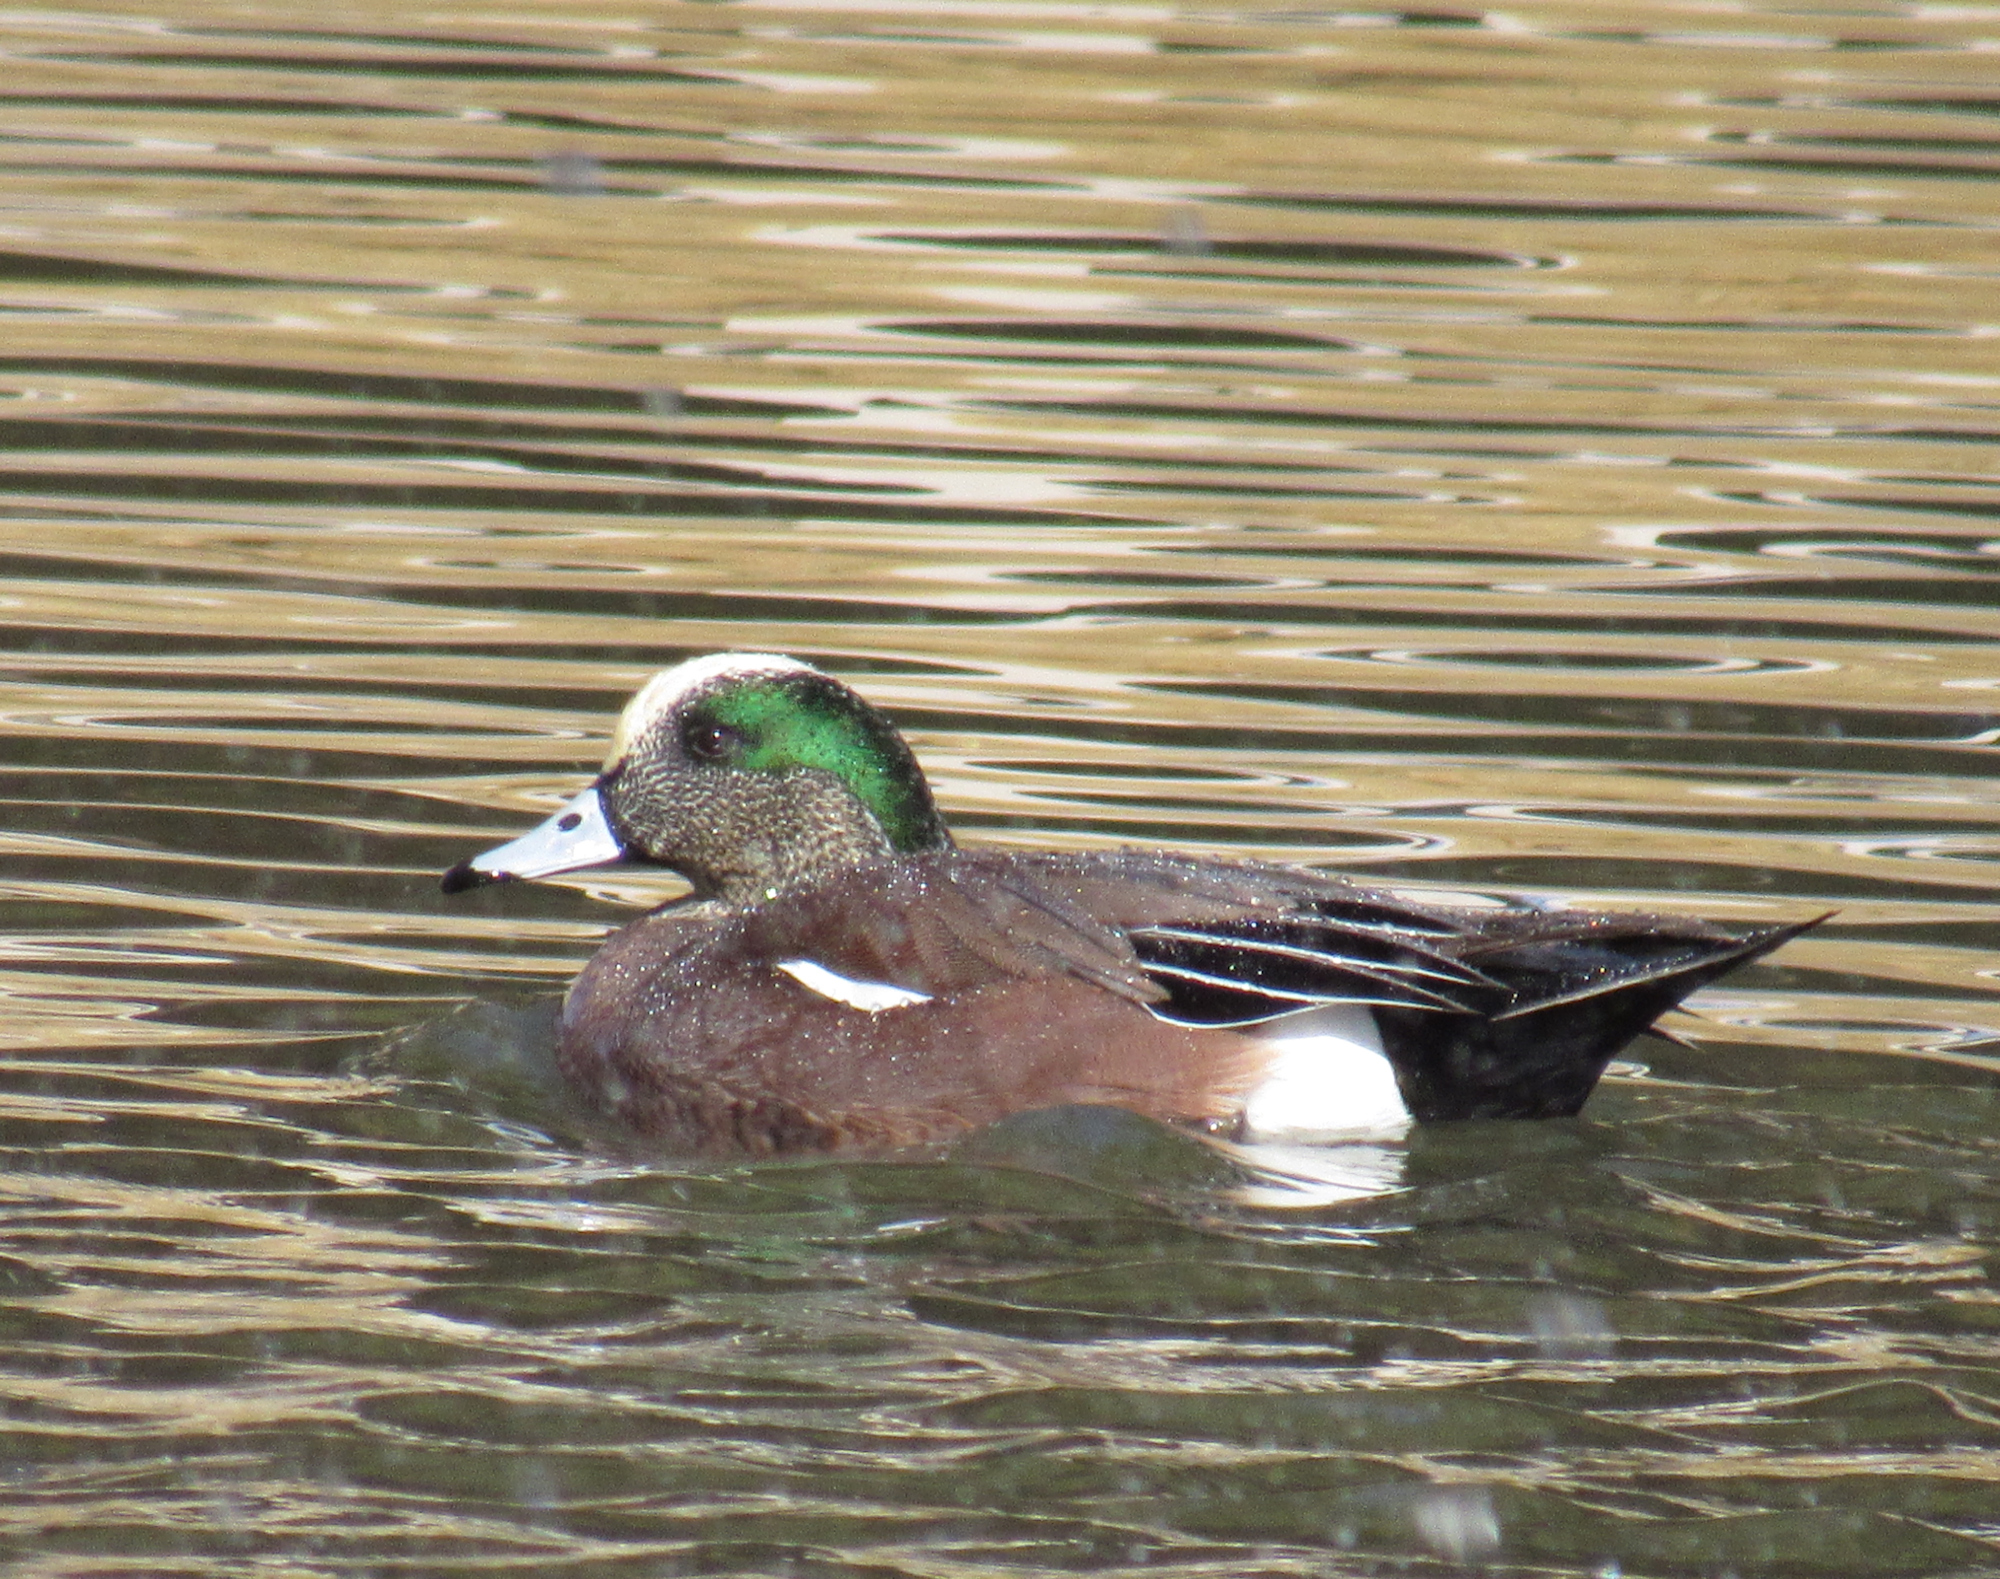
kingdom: Animalia
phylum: Chordata
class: Aves
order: Anseriformes
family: Anatidae
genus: Mareca
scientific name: Mareca americana
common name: American wigeon
